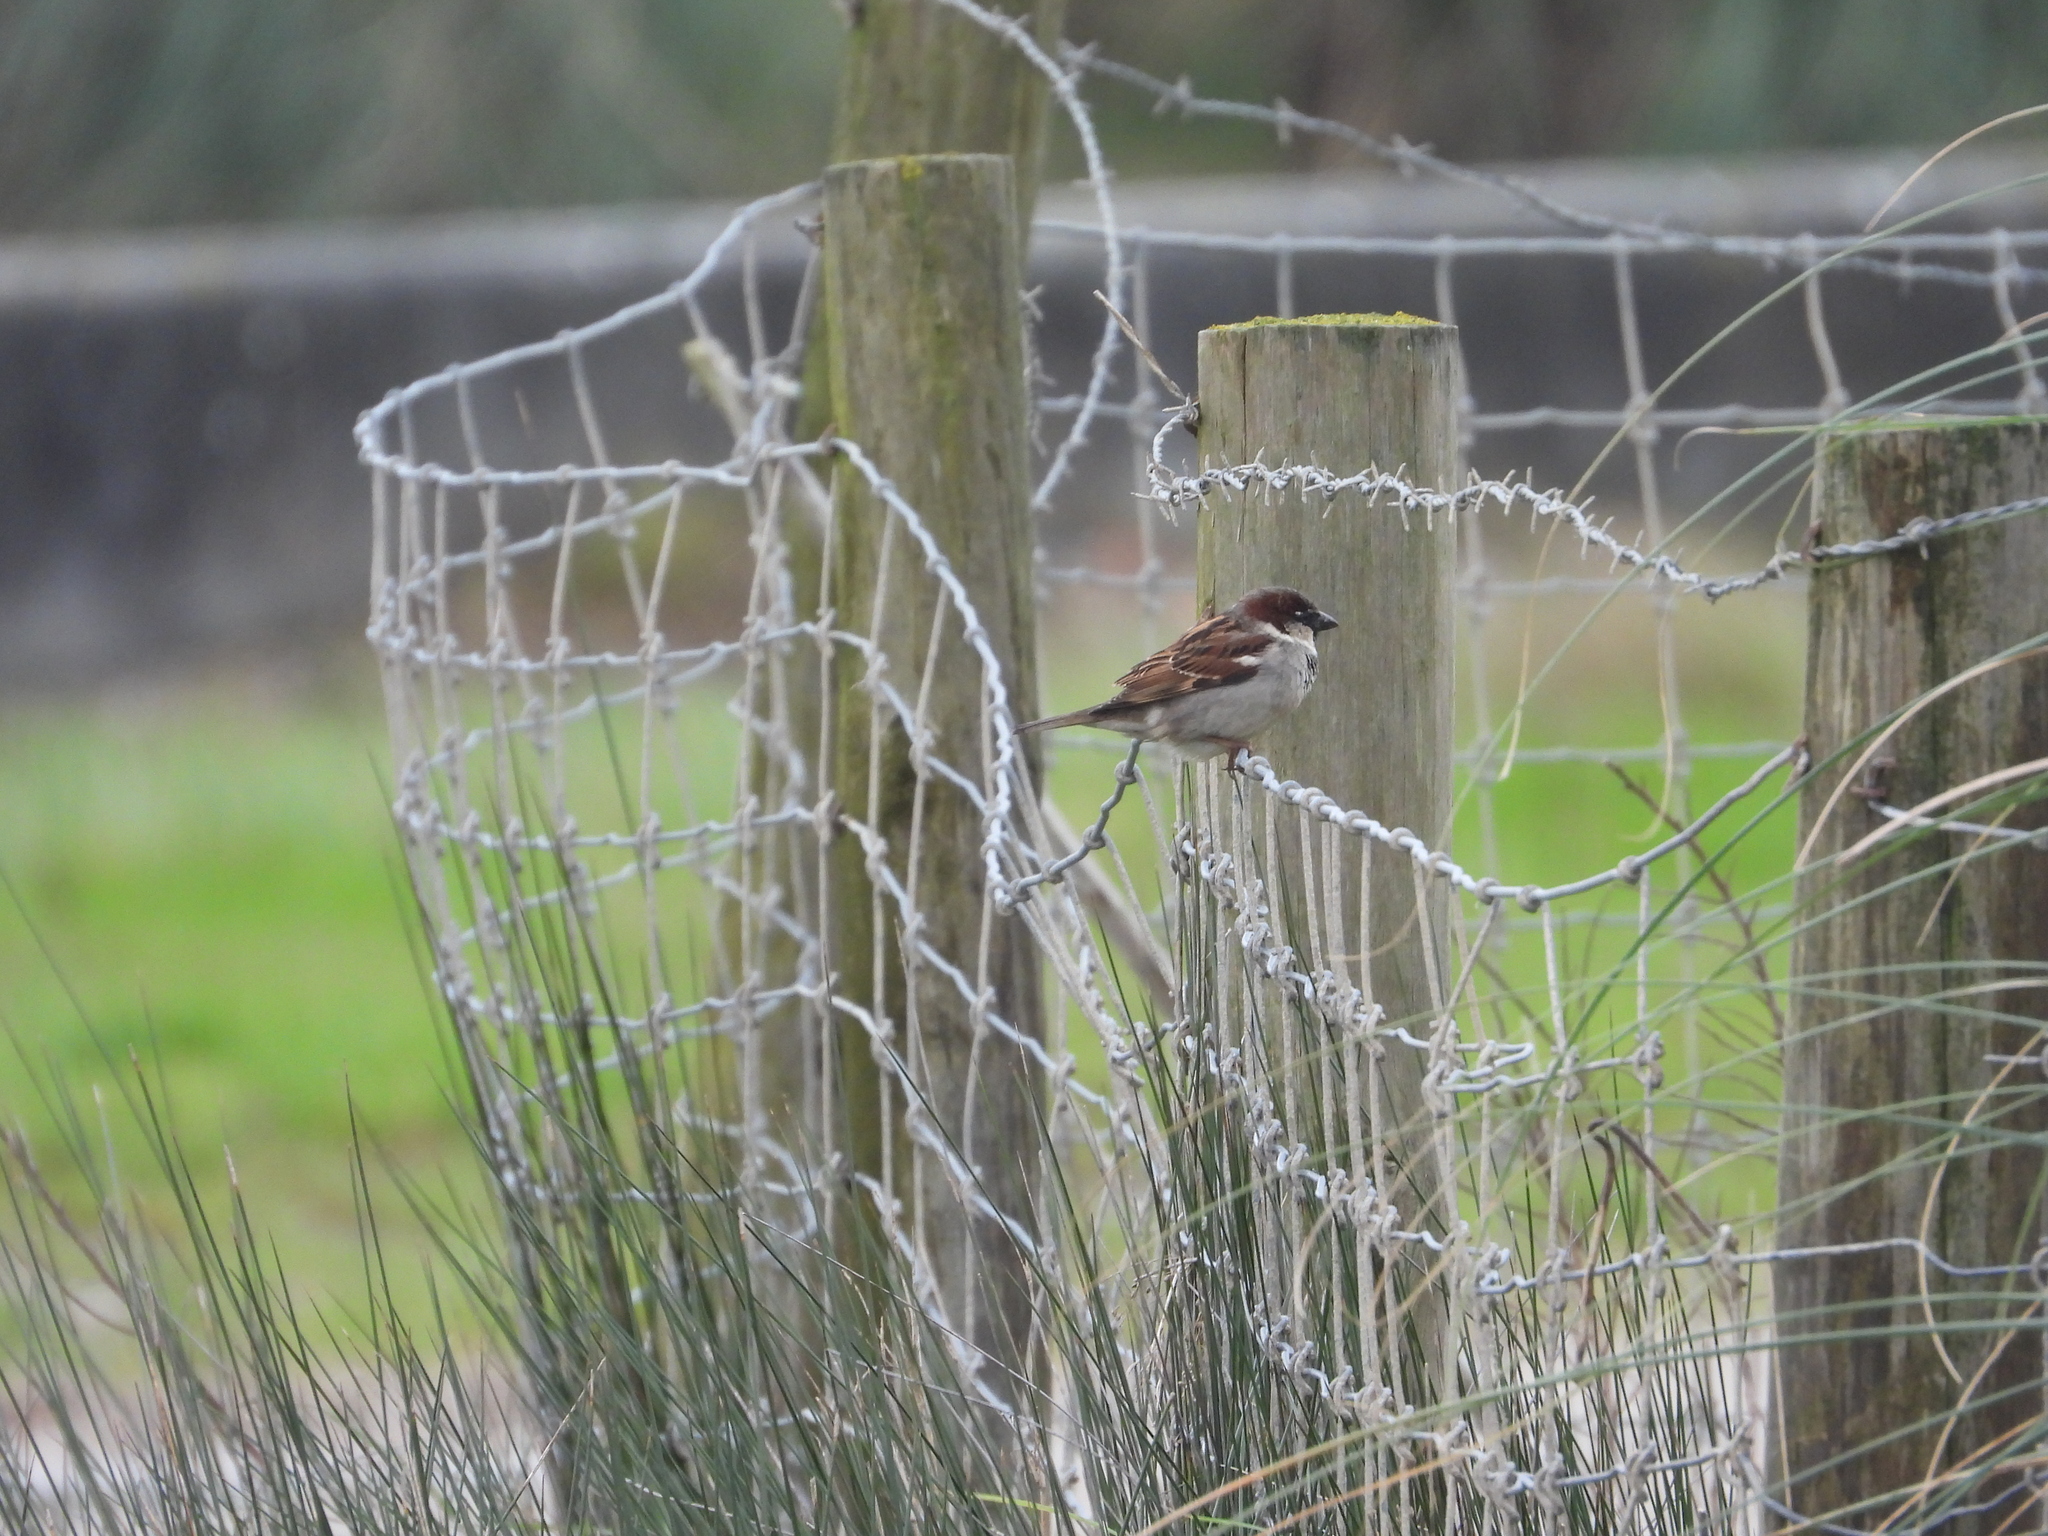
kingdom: Animalia
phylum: Chordata
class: Aves
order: Passeriformes
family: Passeridae
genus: Passer
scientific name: Passer domesticus
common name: House sparrow
